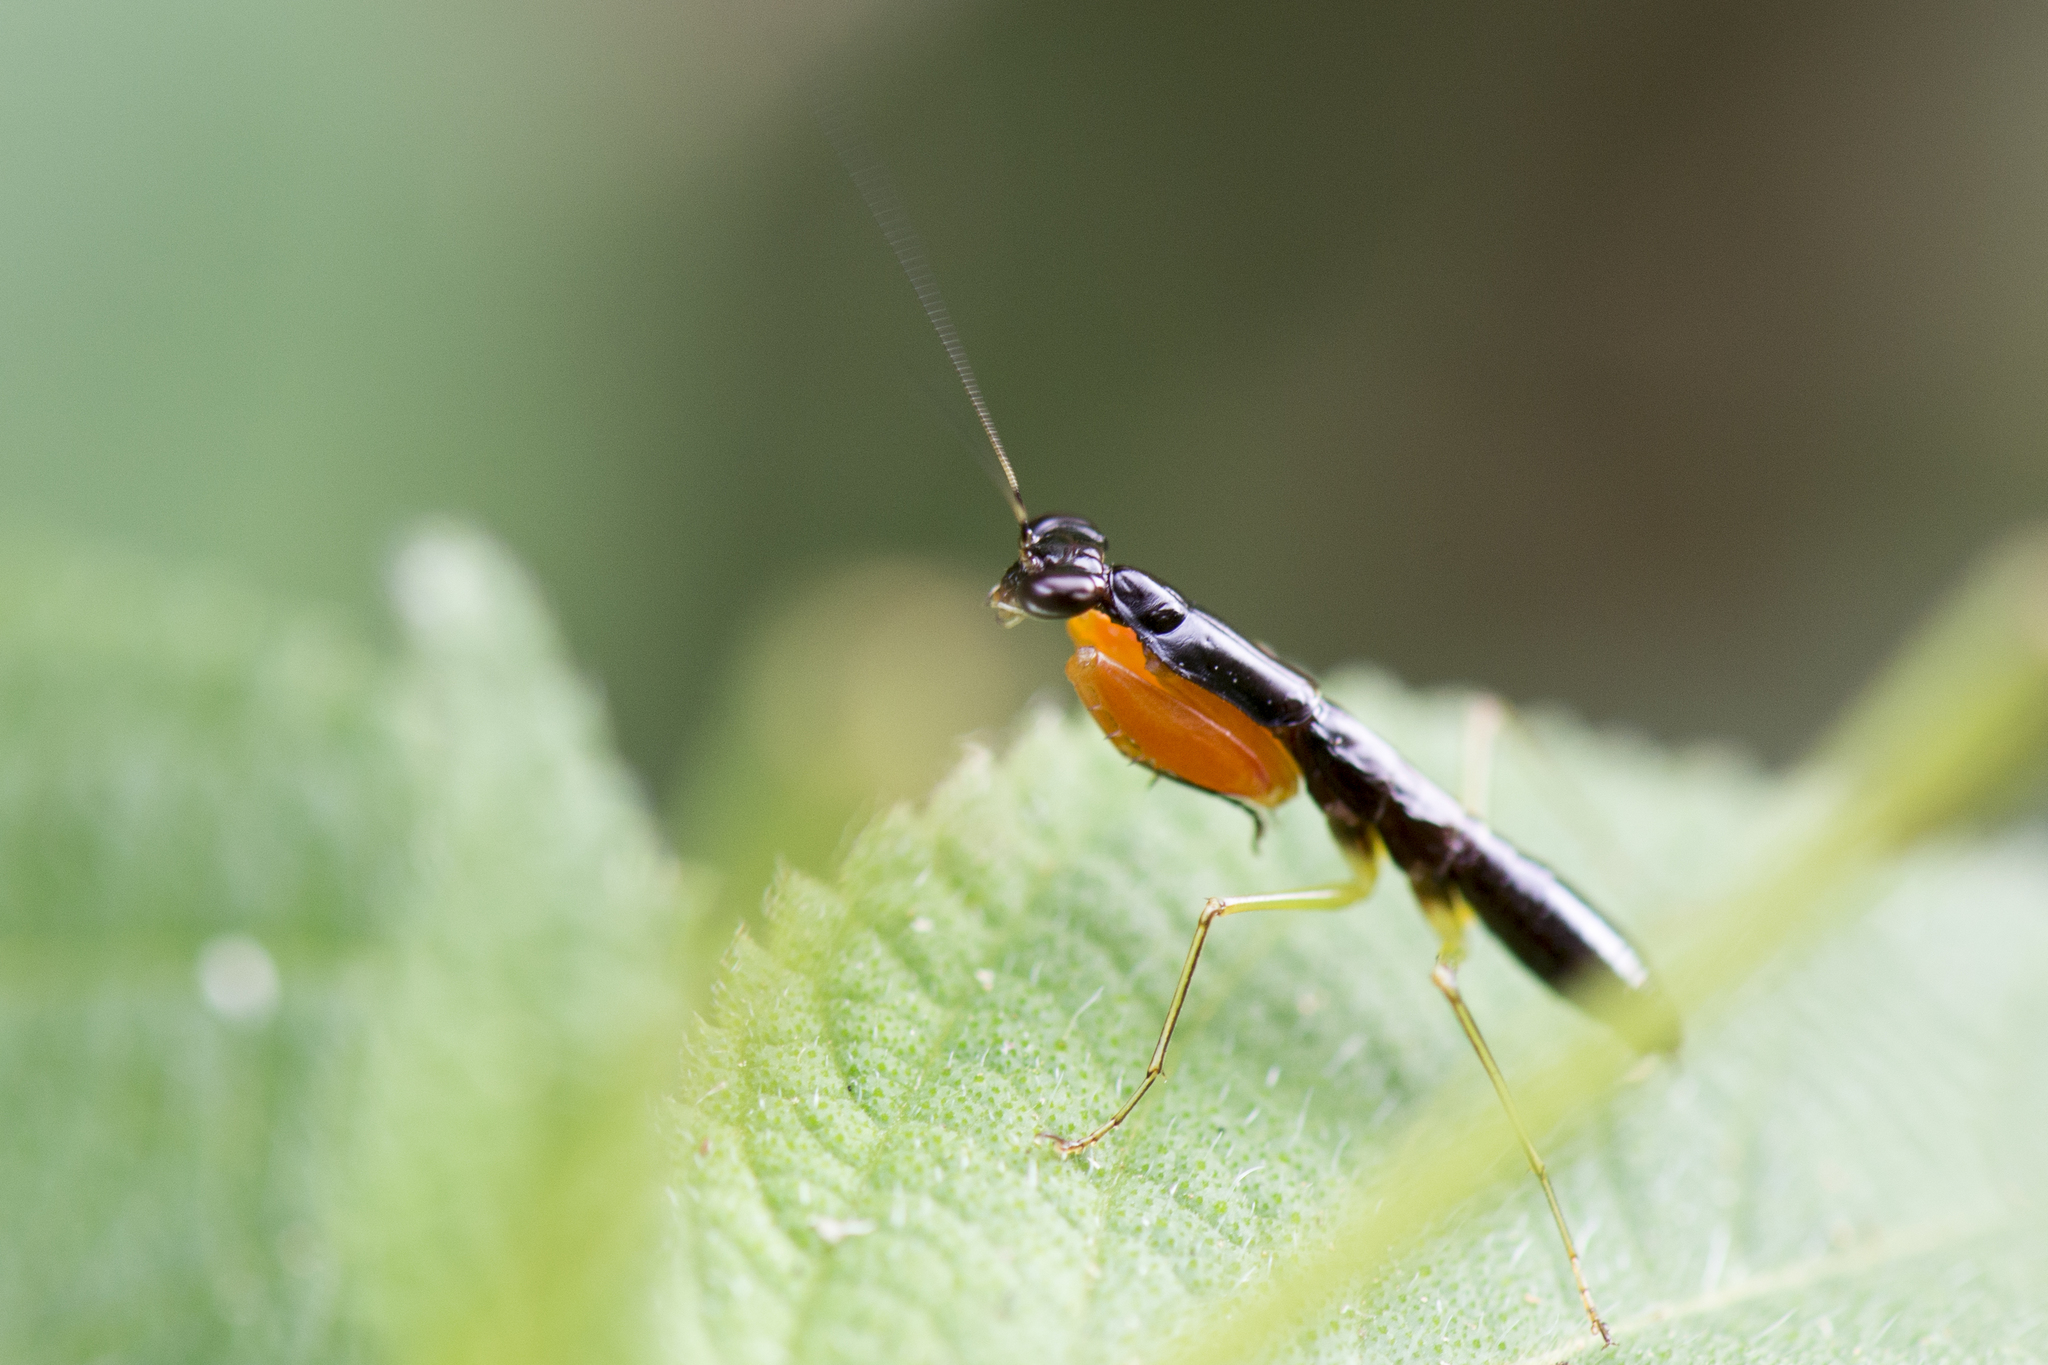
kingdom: Animalia
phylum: Arthropoda
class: Insecta
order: Mantodea
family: Hymenopodidae
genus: Odontomantis
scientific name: Odontomantis planiceps
